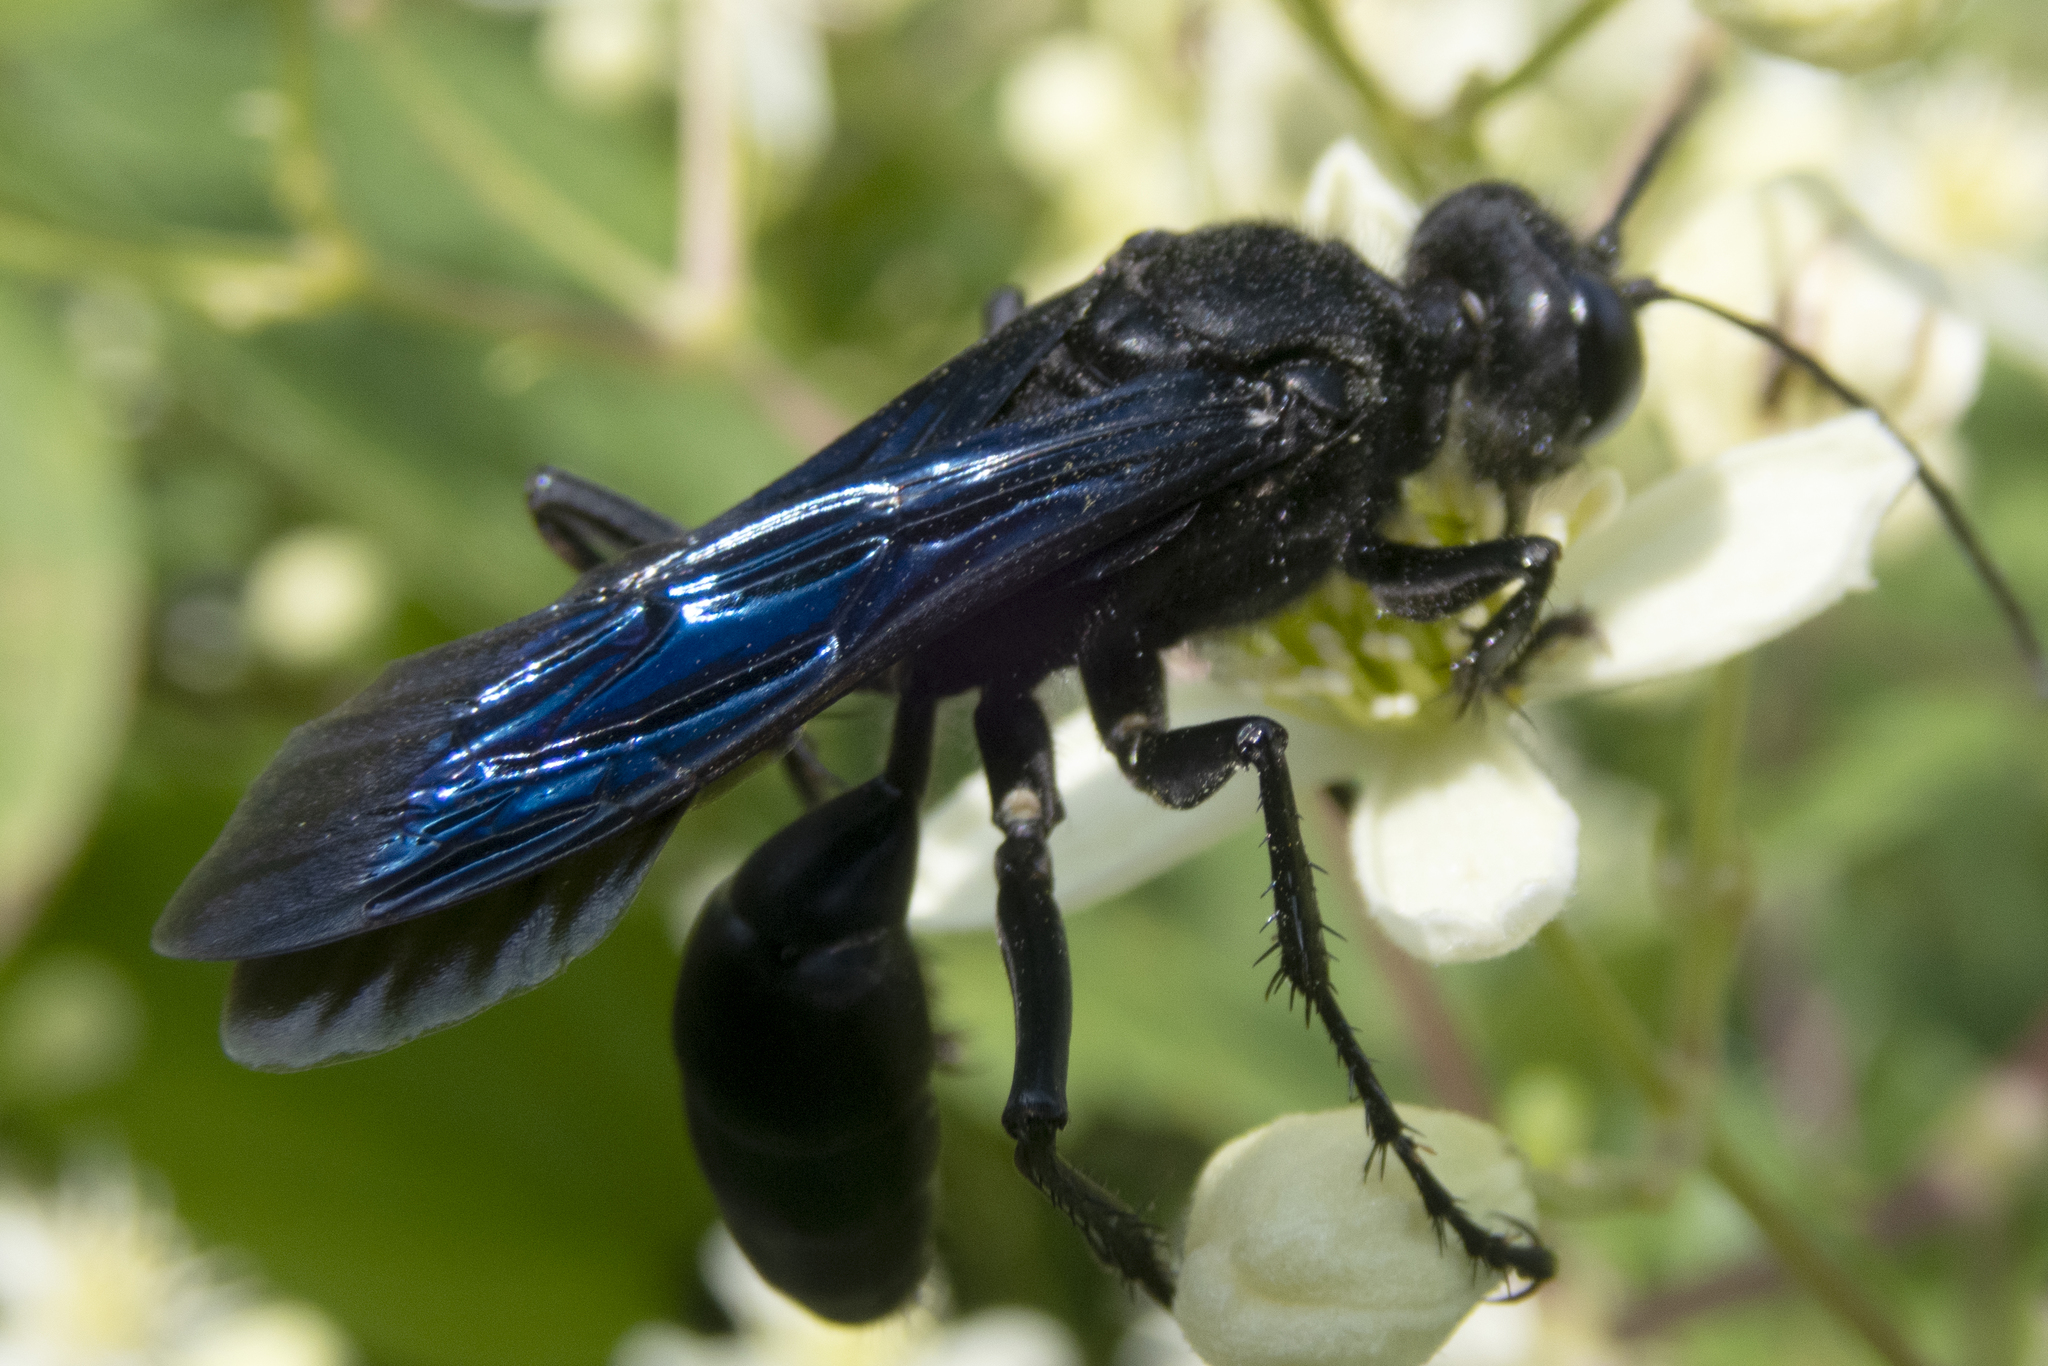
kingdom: Animalia
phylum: Arthropoda
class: Insecta
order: Hymenoptera
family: Sphecidae
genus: Sphex
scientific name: Sphex pensylvanicus
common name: Great black digger wasp
